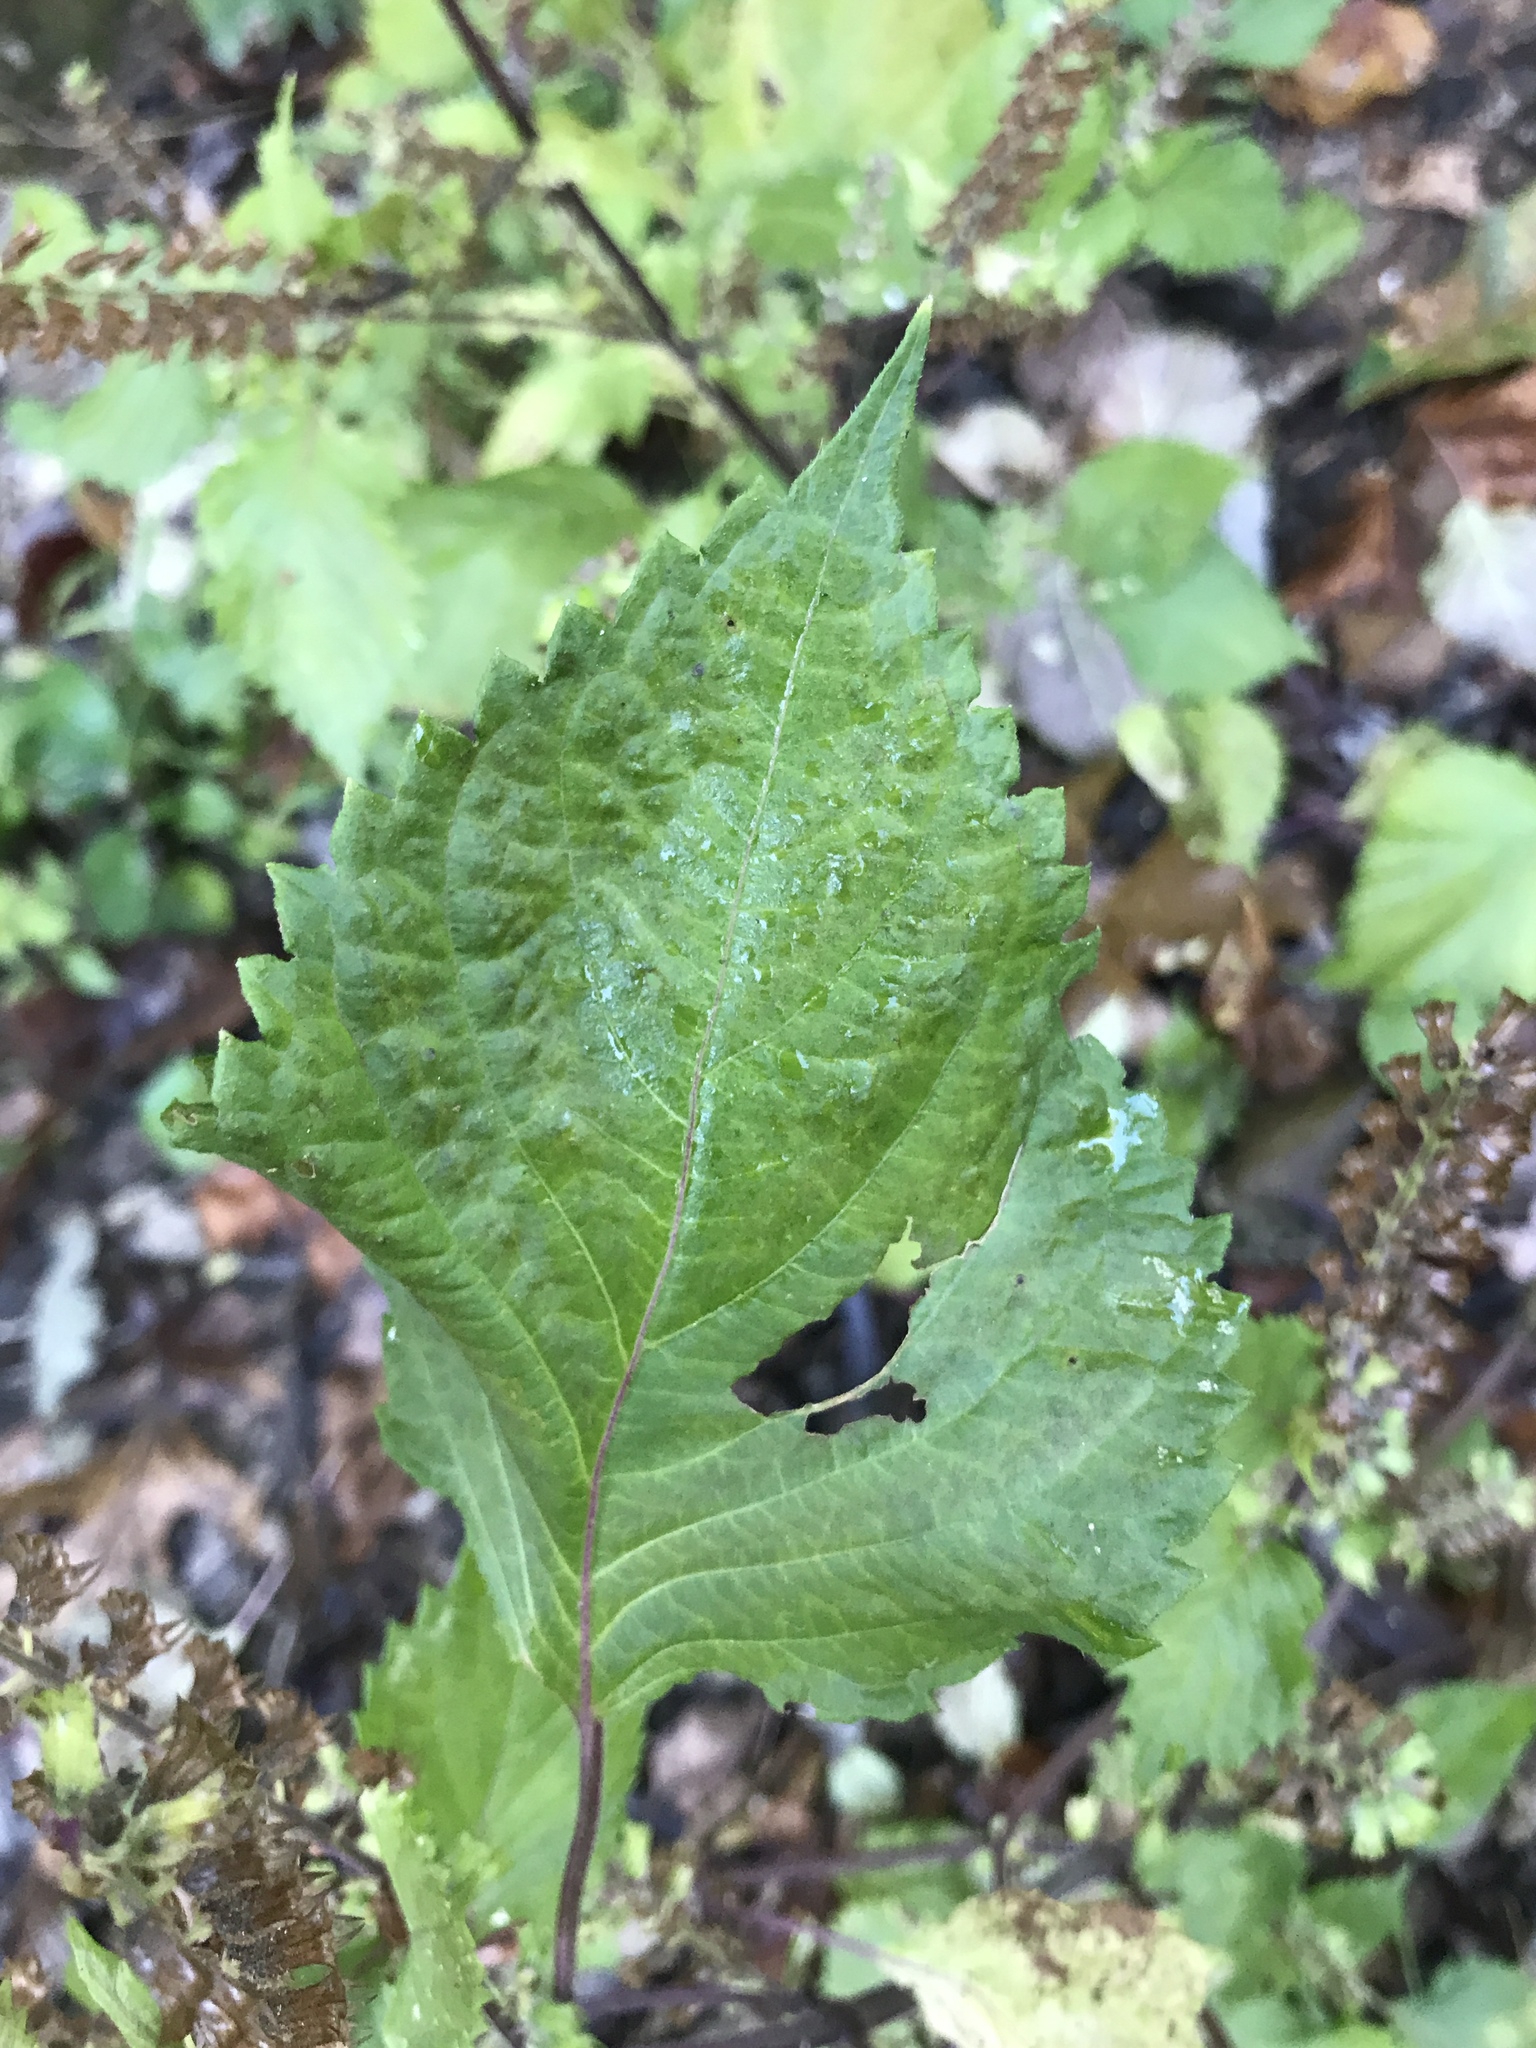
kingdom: Plantae
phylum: Tracheophyta
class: Magnoliopsida
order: Lamiales
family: Lamiaceae
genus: Perilla
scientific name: Perilla frutescens
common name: Perilla
